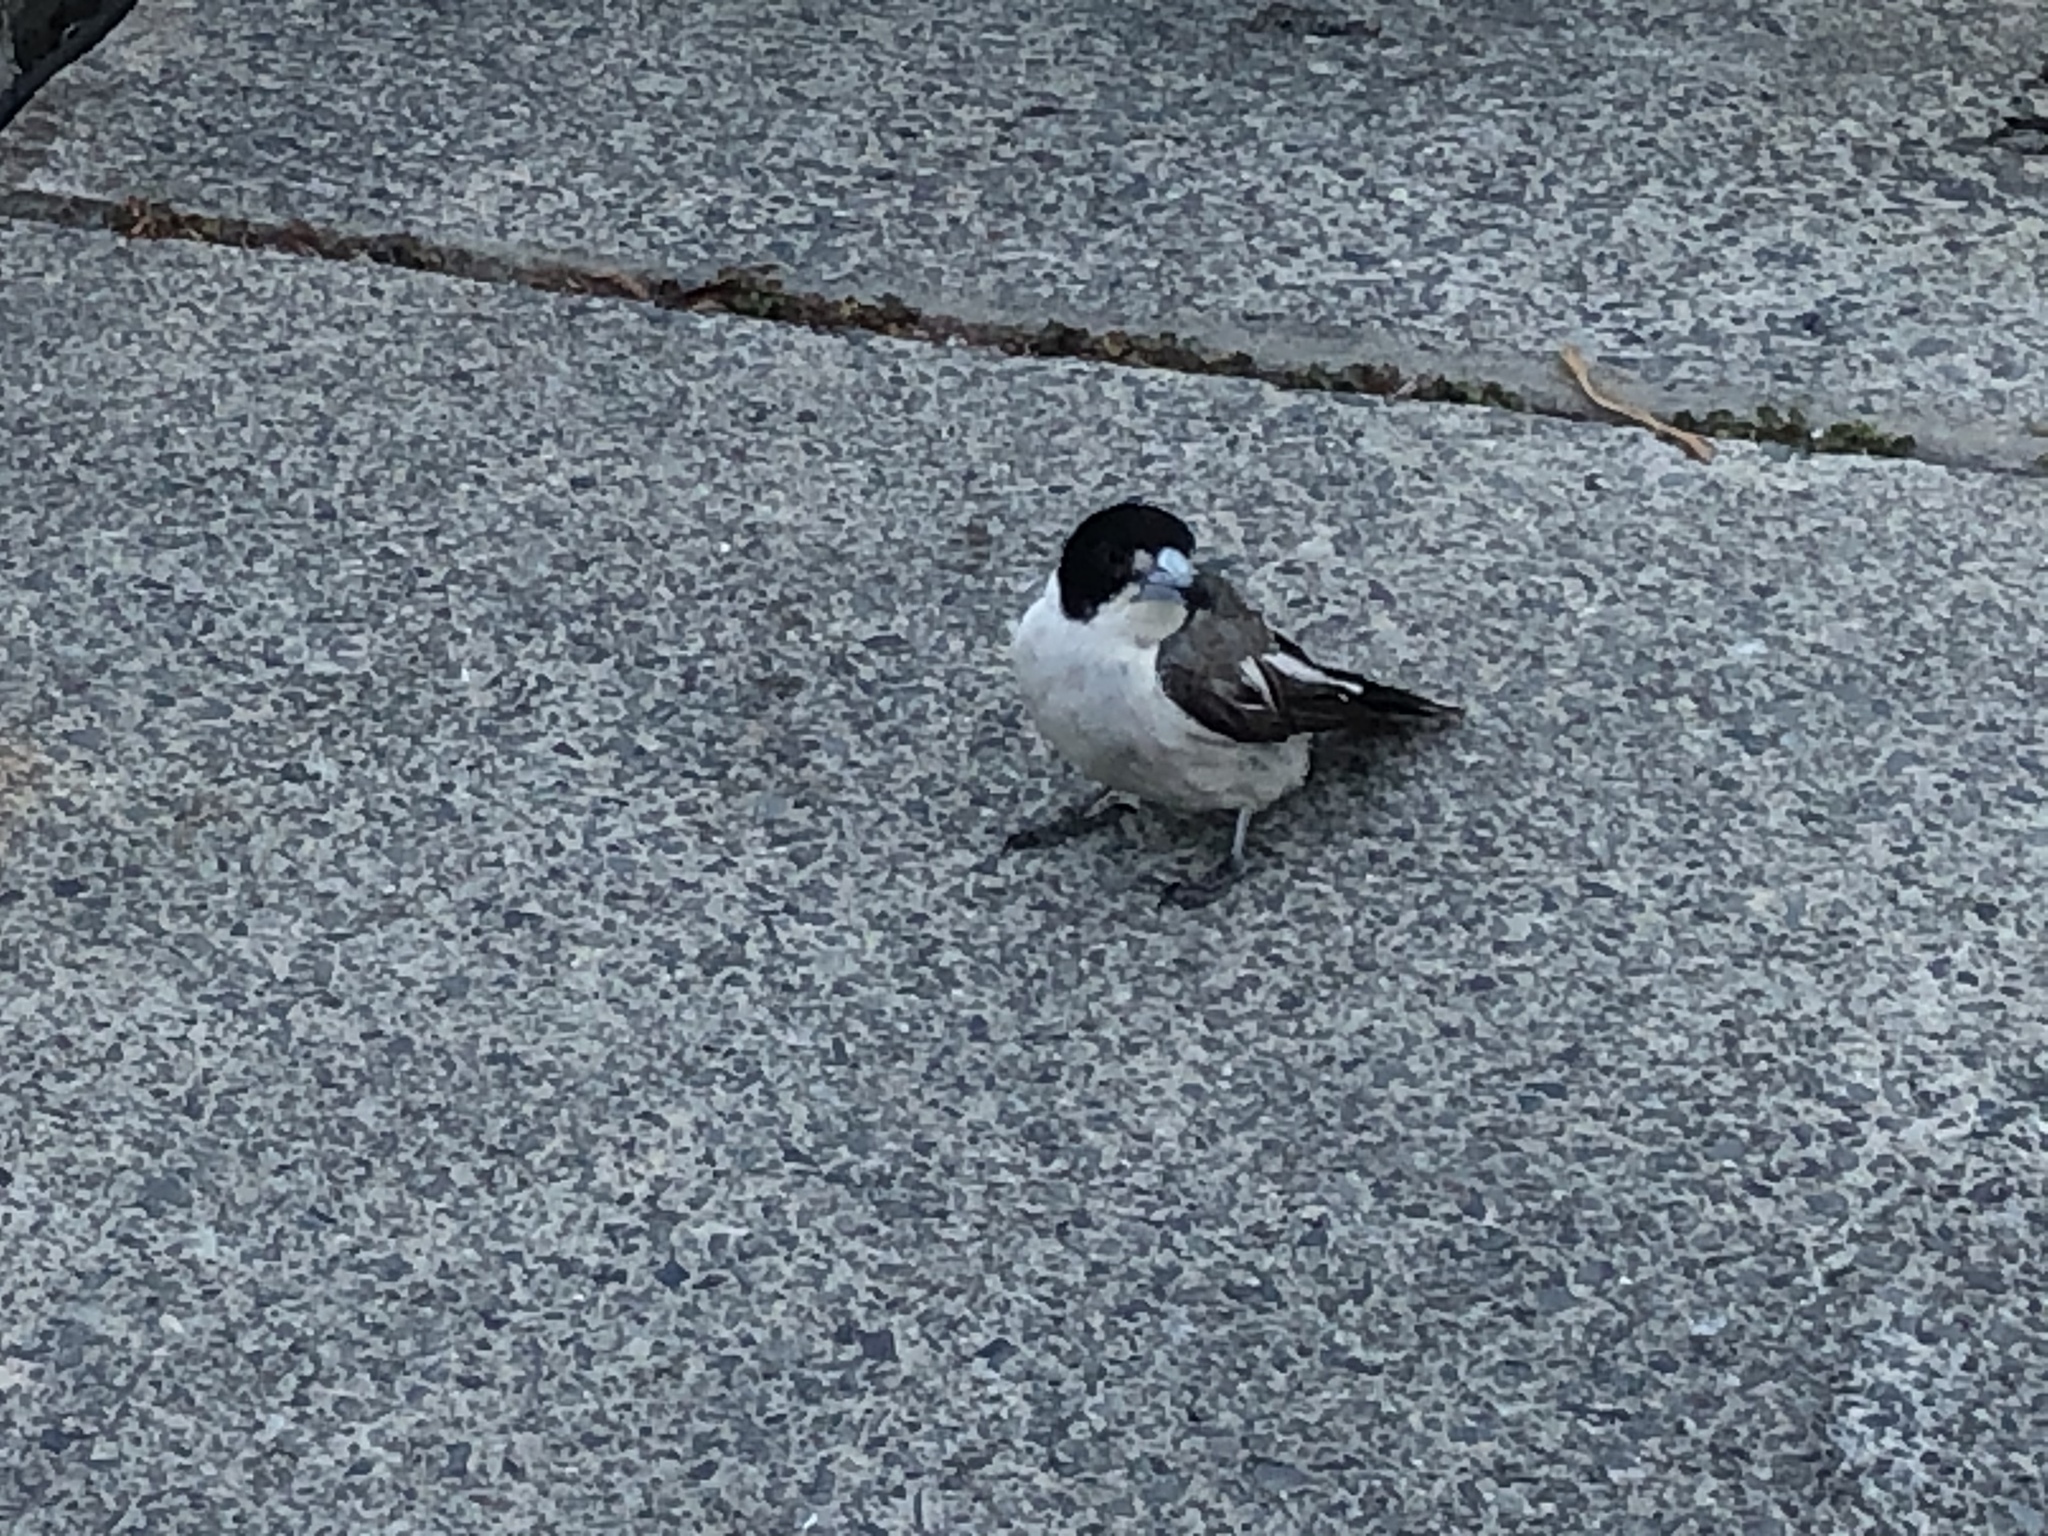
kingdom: Animalia
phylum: Chordata
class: Aves
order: Passeriformes
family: Cracticidae
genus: Cracticus
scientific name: Cracticus torquatus
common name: Grey butcherbird
